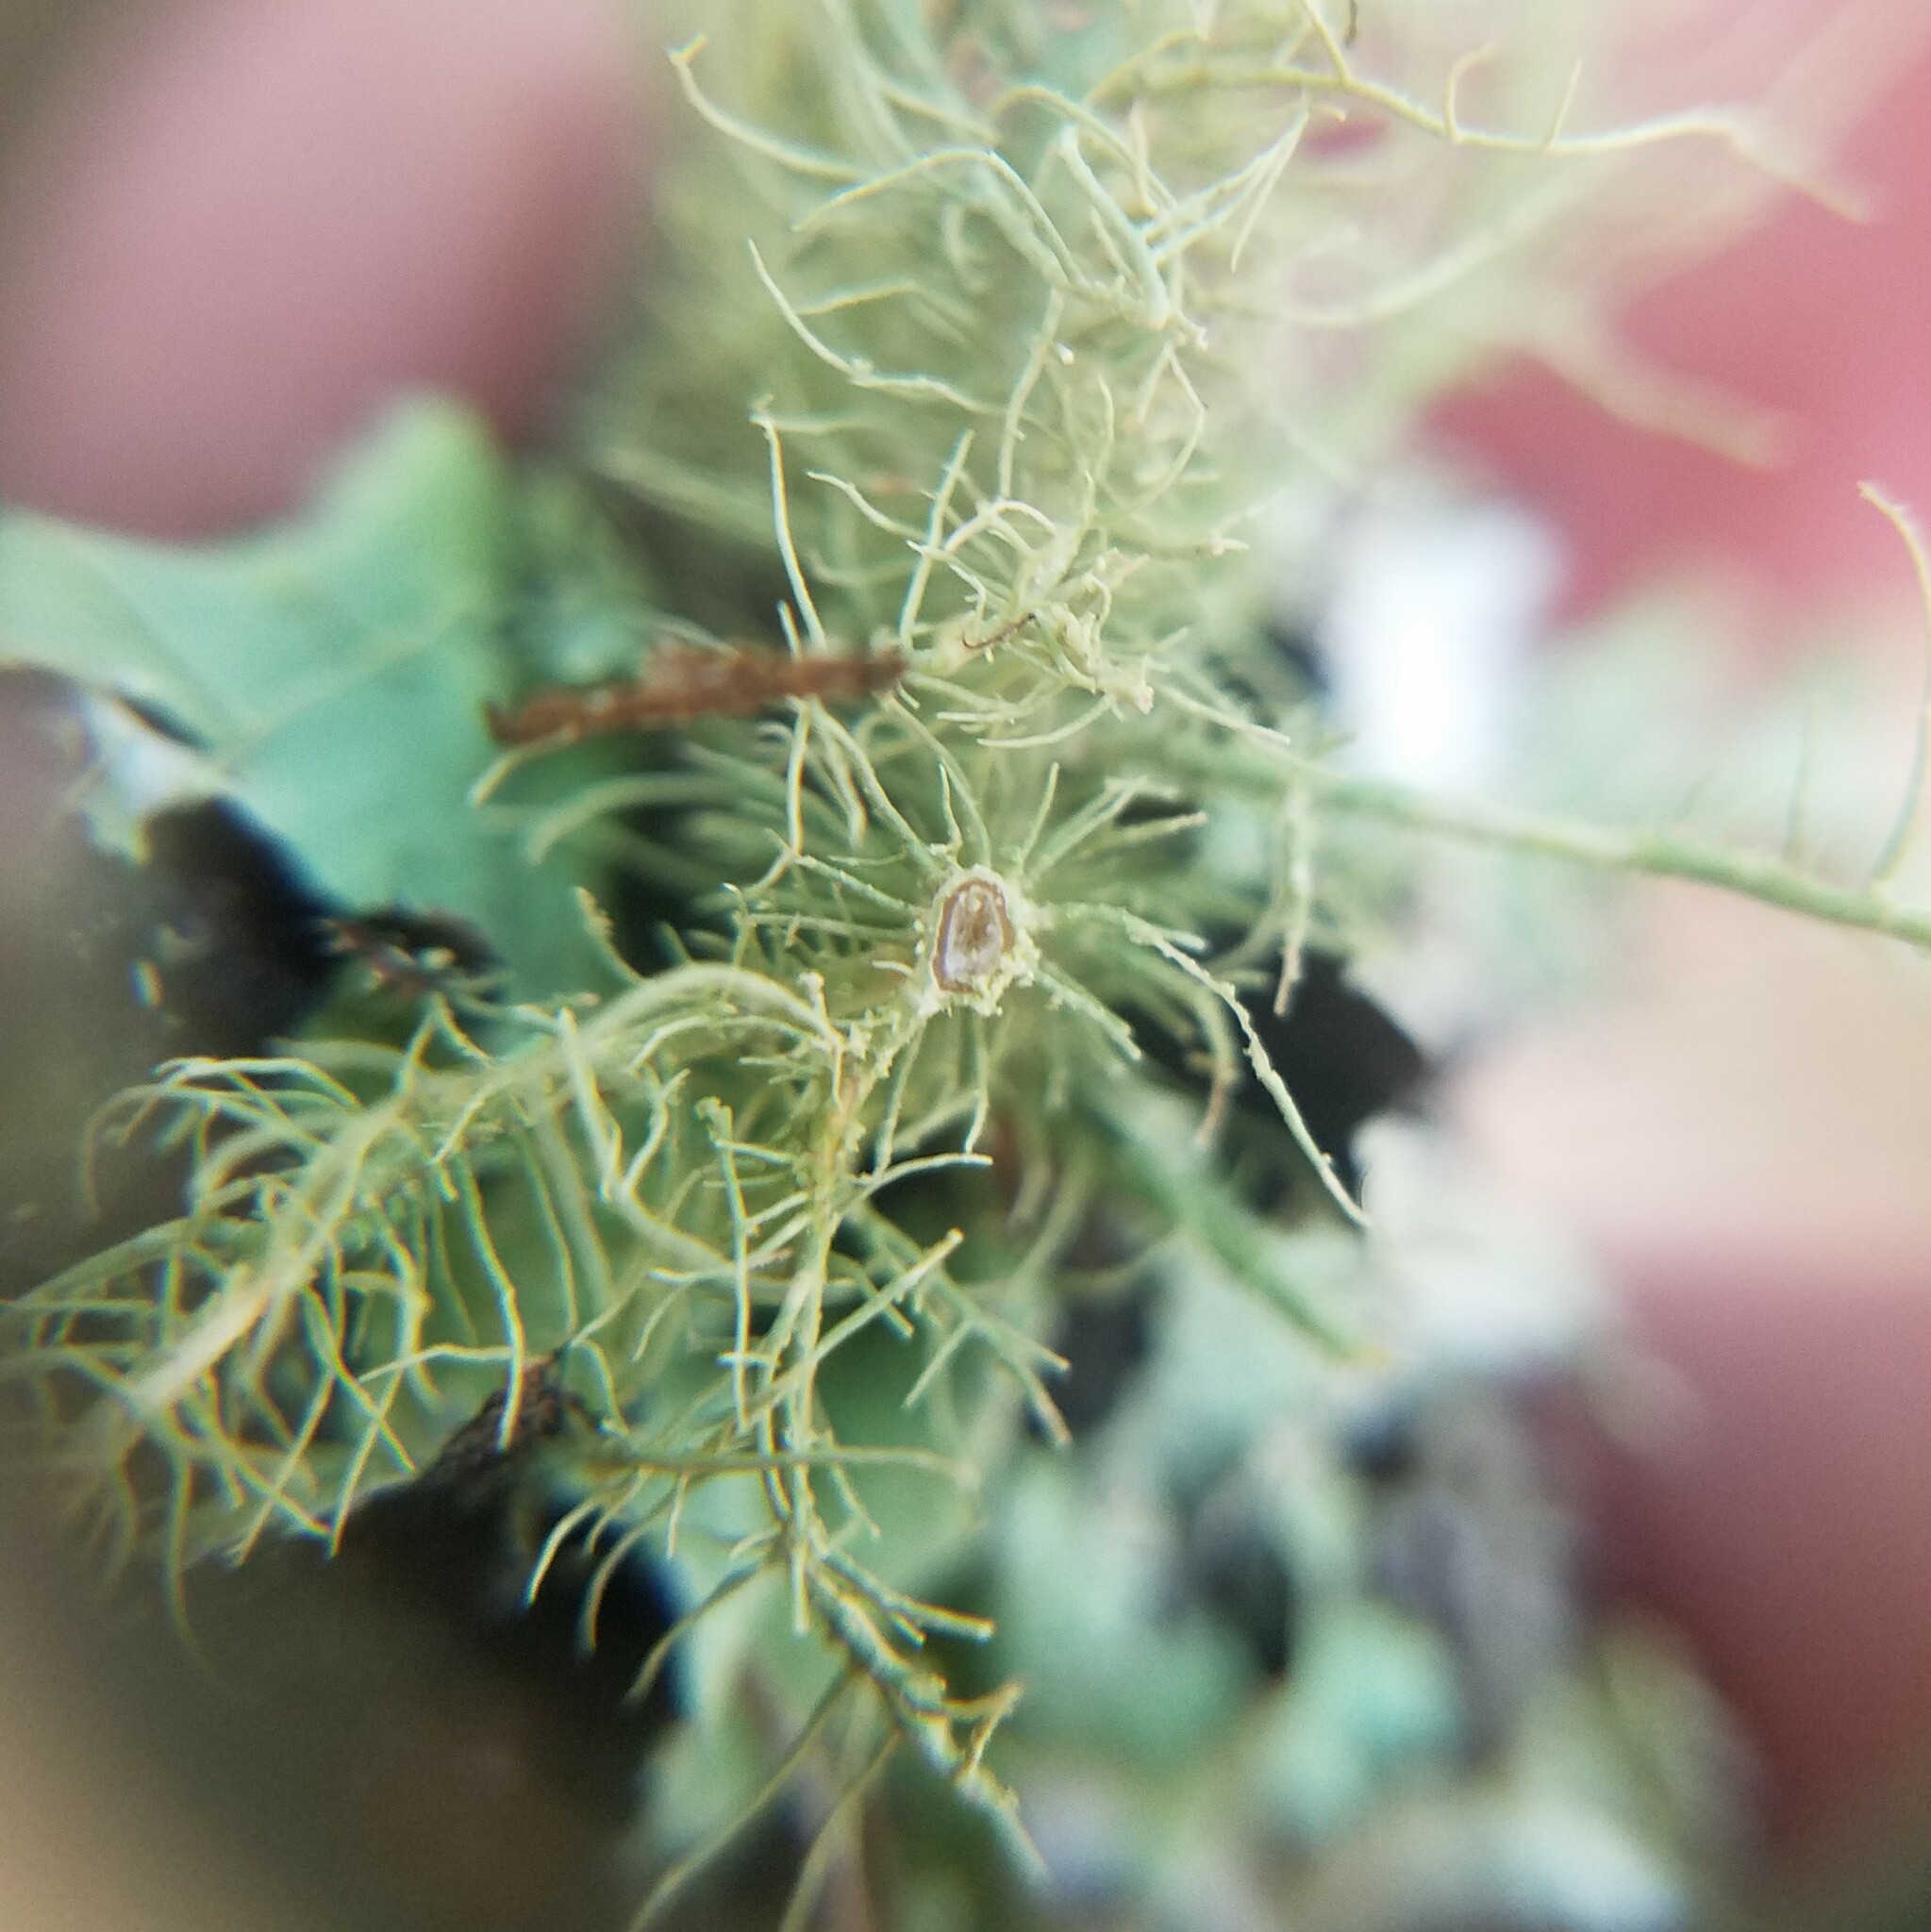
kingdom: Fungi
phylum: Ascomycota
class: Lecanoromycetes
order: Lecanorales
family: Parmeliaceae
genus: Eumitria
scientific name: Eumitria baileyi
